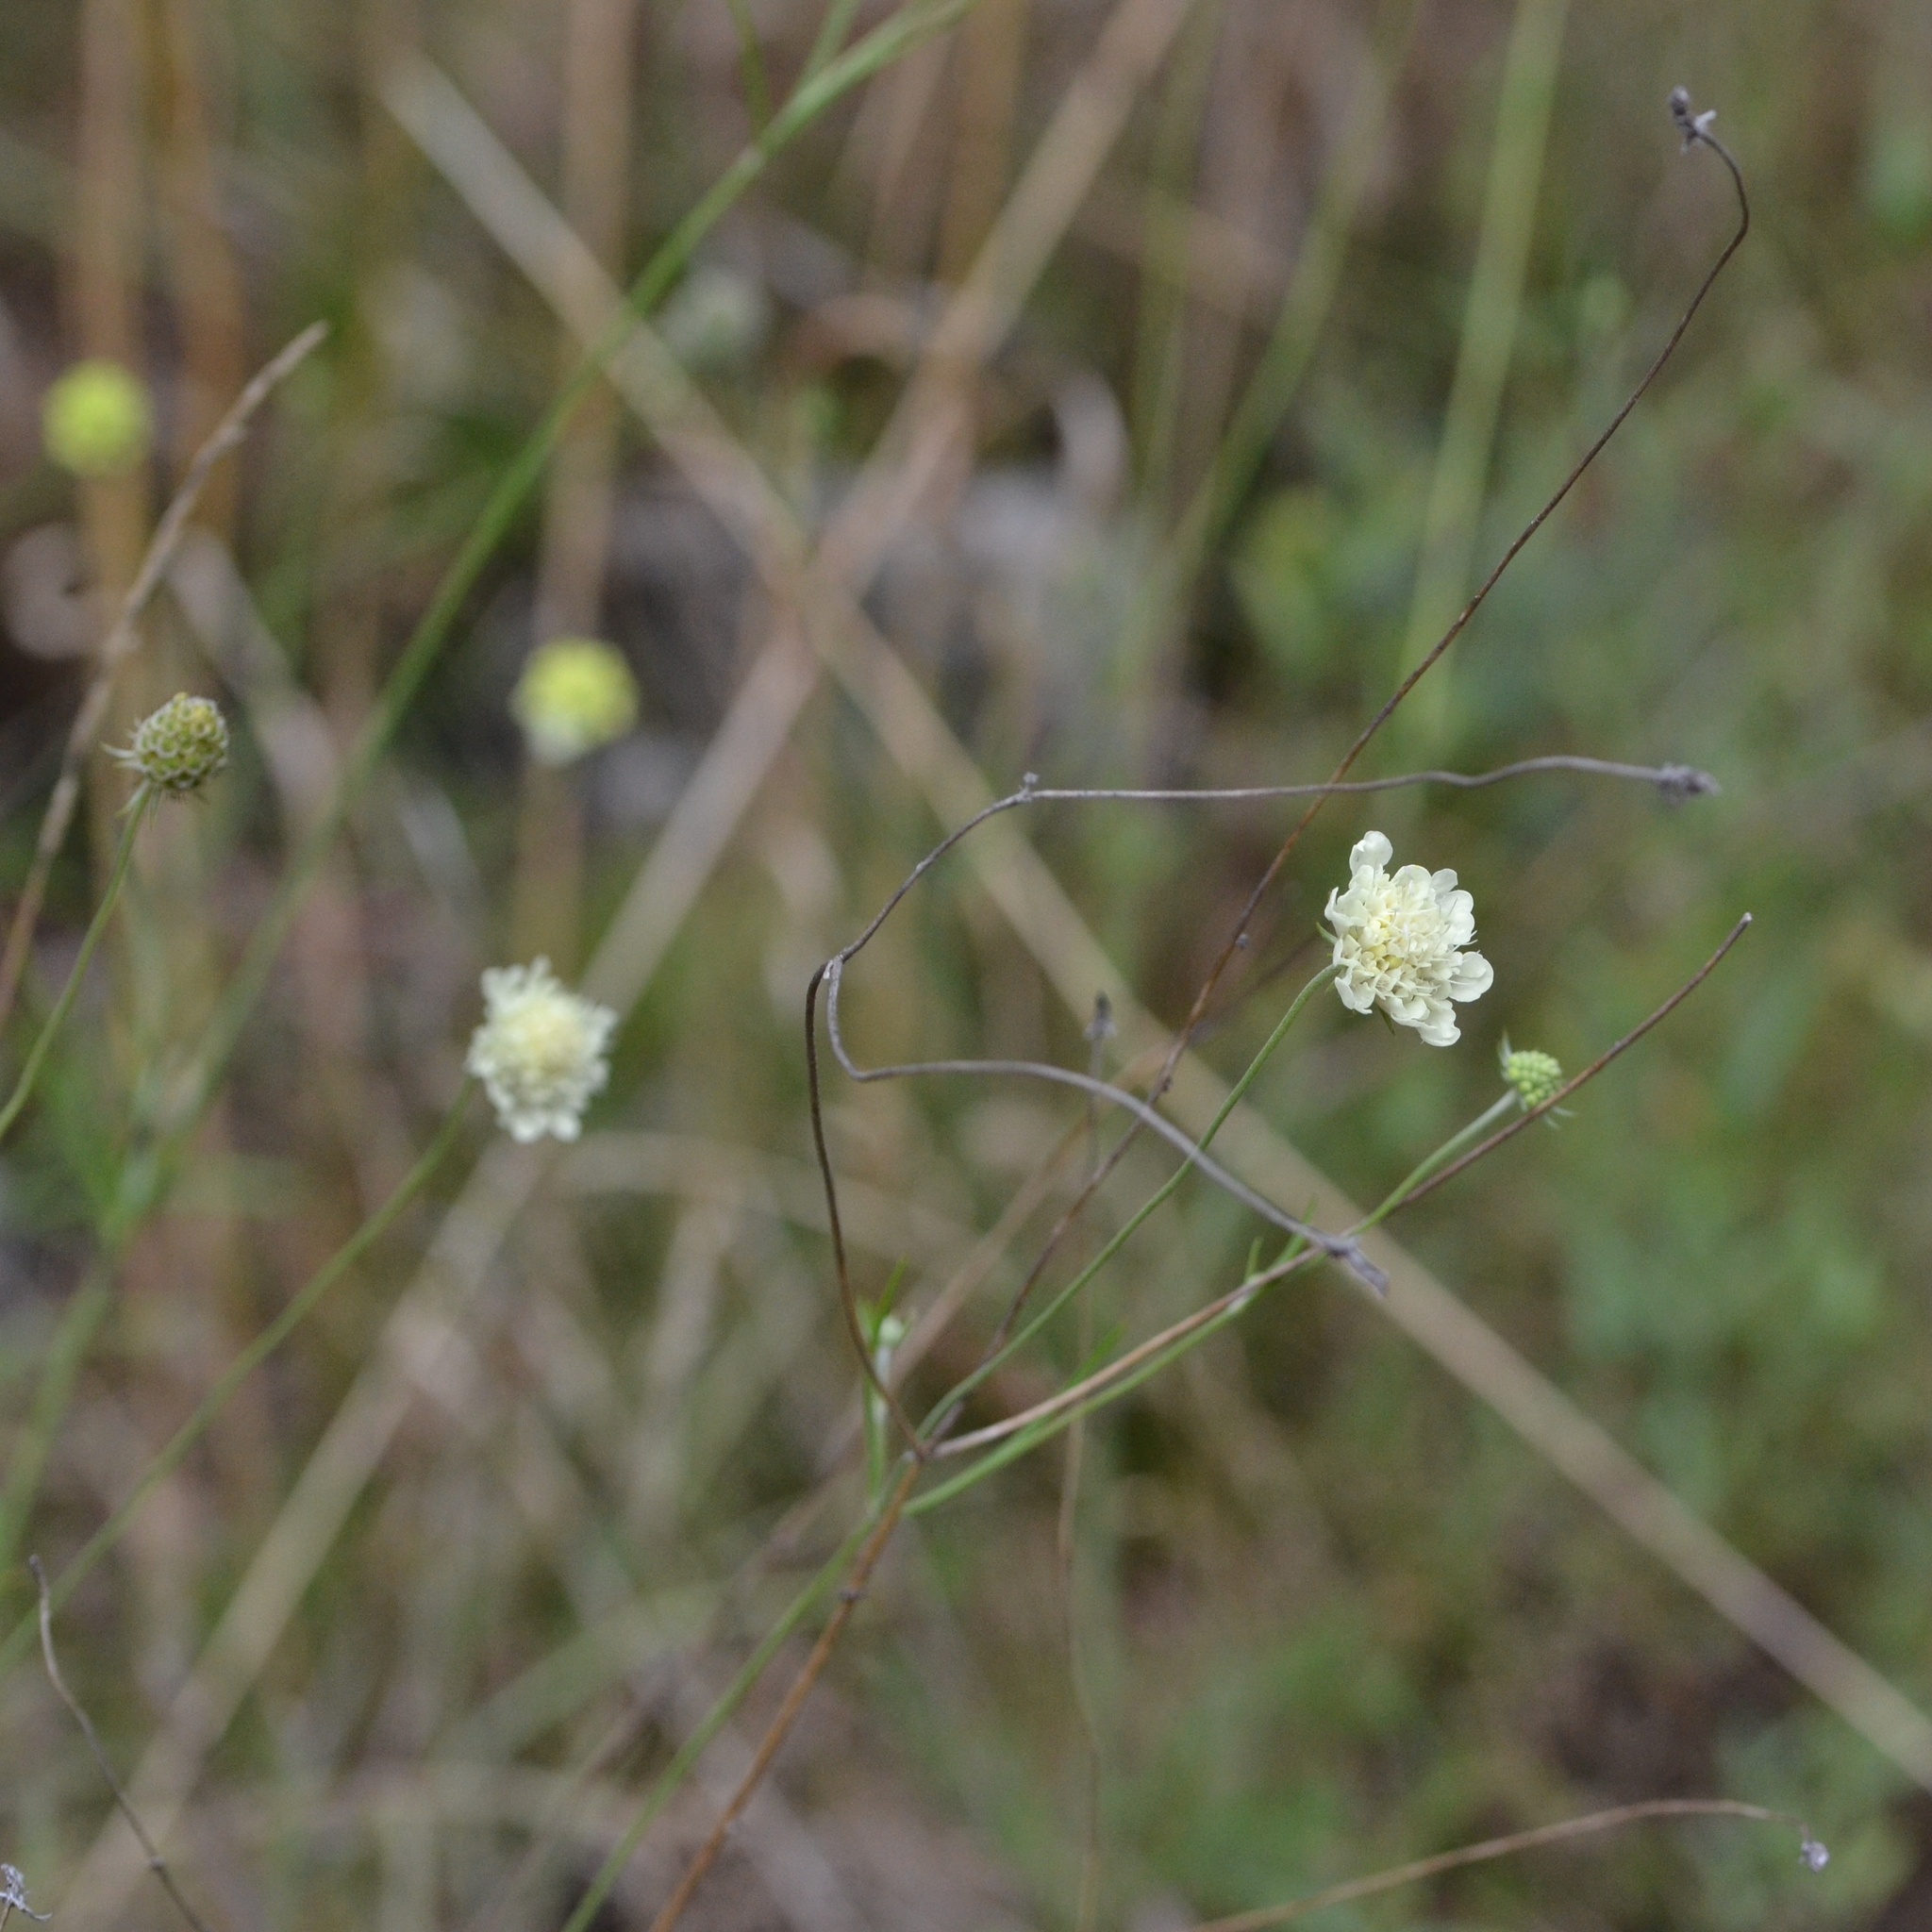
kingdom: Plantae
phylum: Tracheophyta
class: Magnoliopsida
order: Dipsacales
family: Caprifoliaceae
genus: Scabiosa
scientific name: Scabiosa ochroleuca
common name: Cream pincushions
